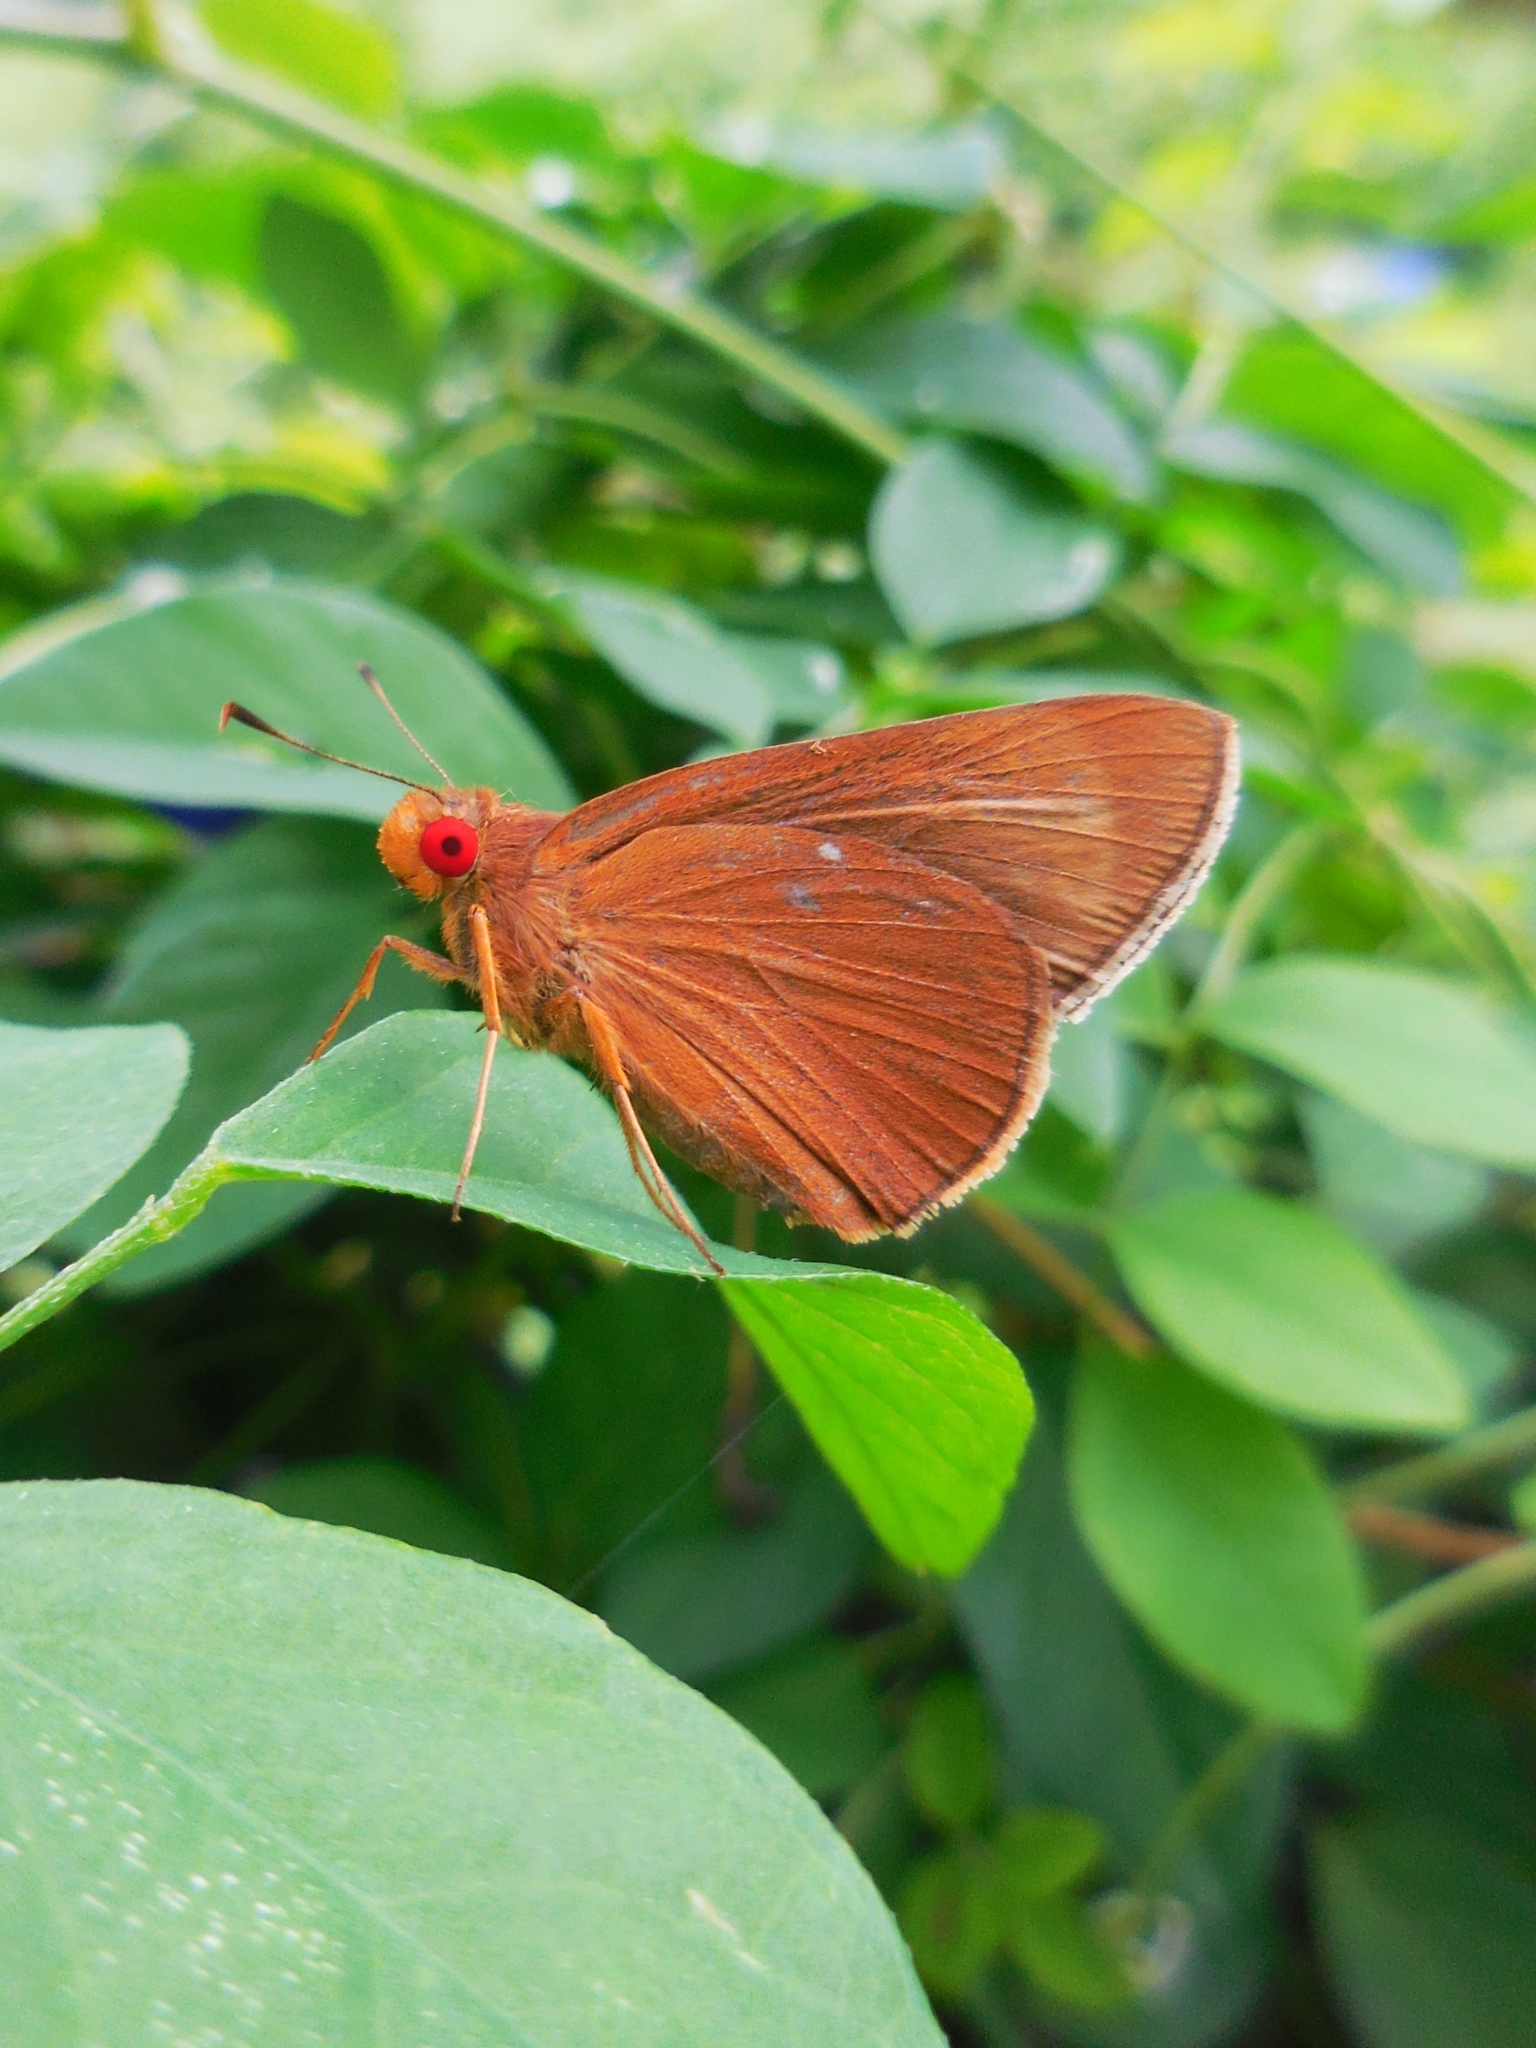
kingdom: Animalia
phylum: Arthropoda
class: Insecta
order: Lepidoptera
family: Hesperiidae
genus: Matapa
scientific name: Matapa aria
